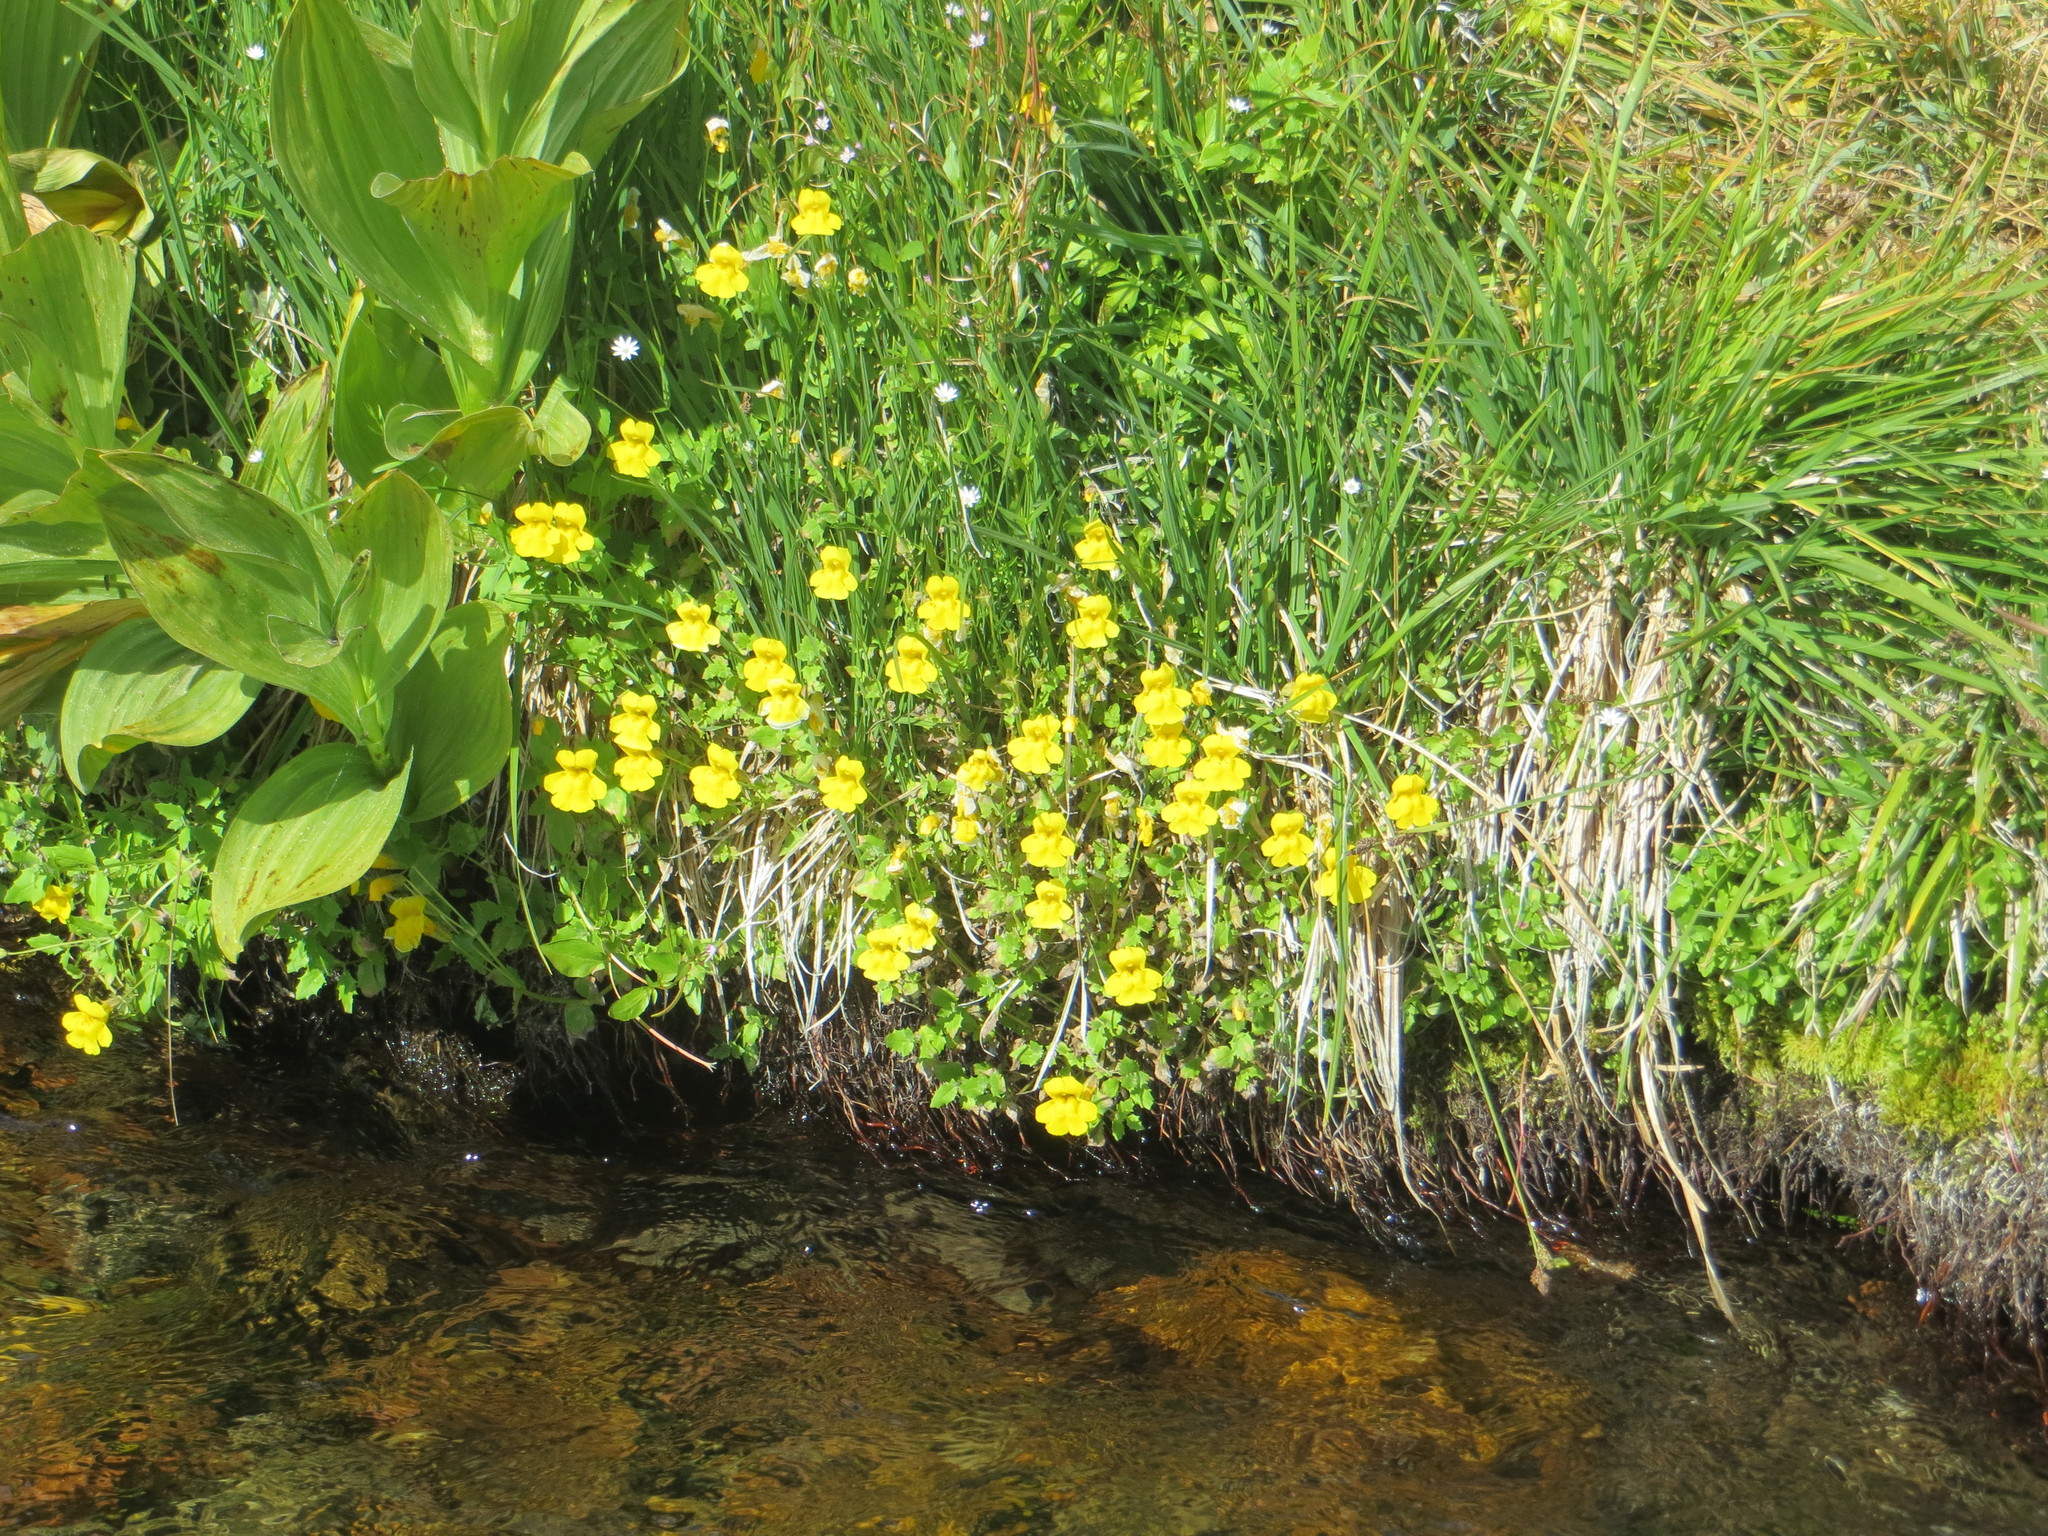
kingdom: Plantae
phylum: Tracheophyta
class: Magnoliopsida
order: Lamiales
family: Phrymaceae
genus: Erythranthe
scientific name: Erythranthe guttata
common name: Monkeyflower
